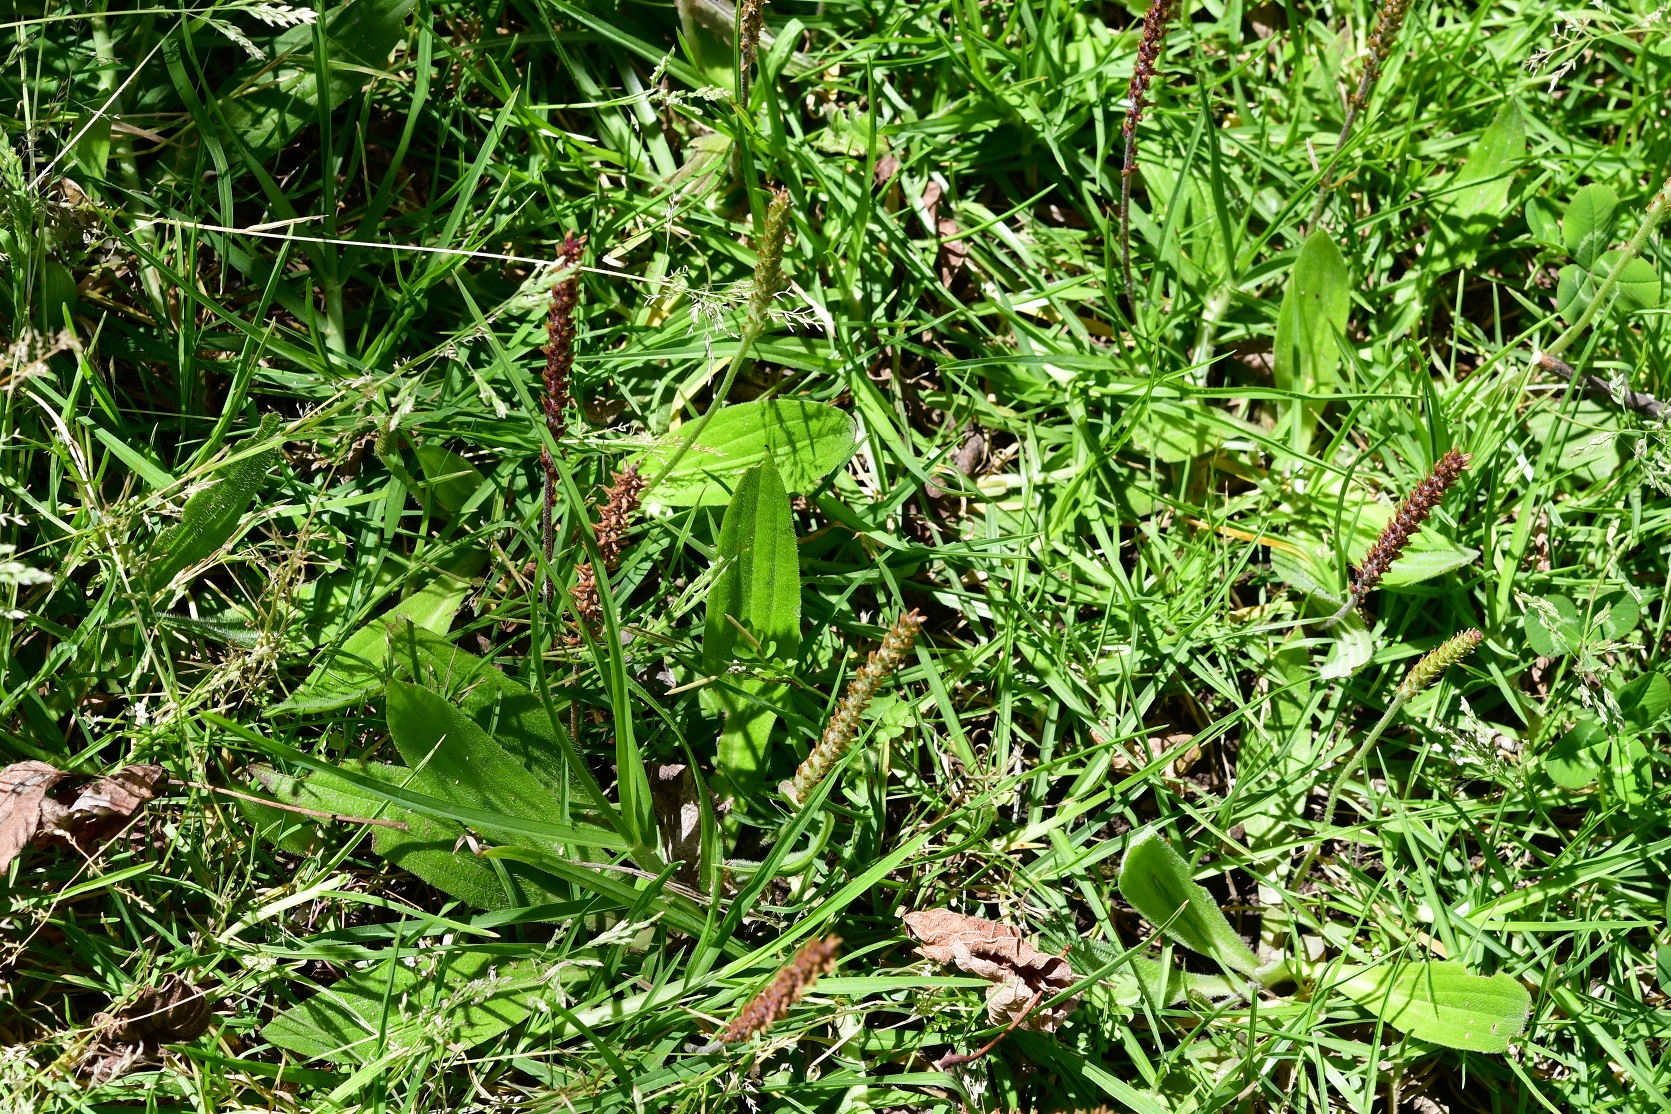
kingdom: Plantae
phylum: Tracheophyta
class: Magnoliopsida
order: Lamiales
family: Plantaginaceae
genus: Plantago
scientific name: Plantago australis
